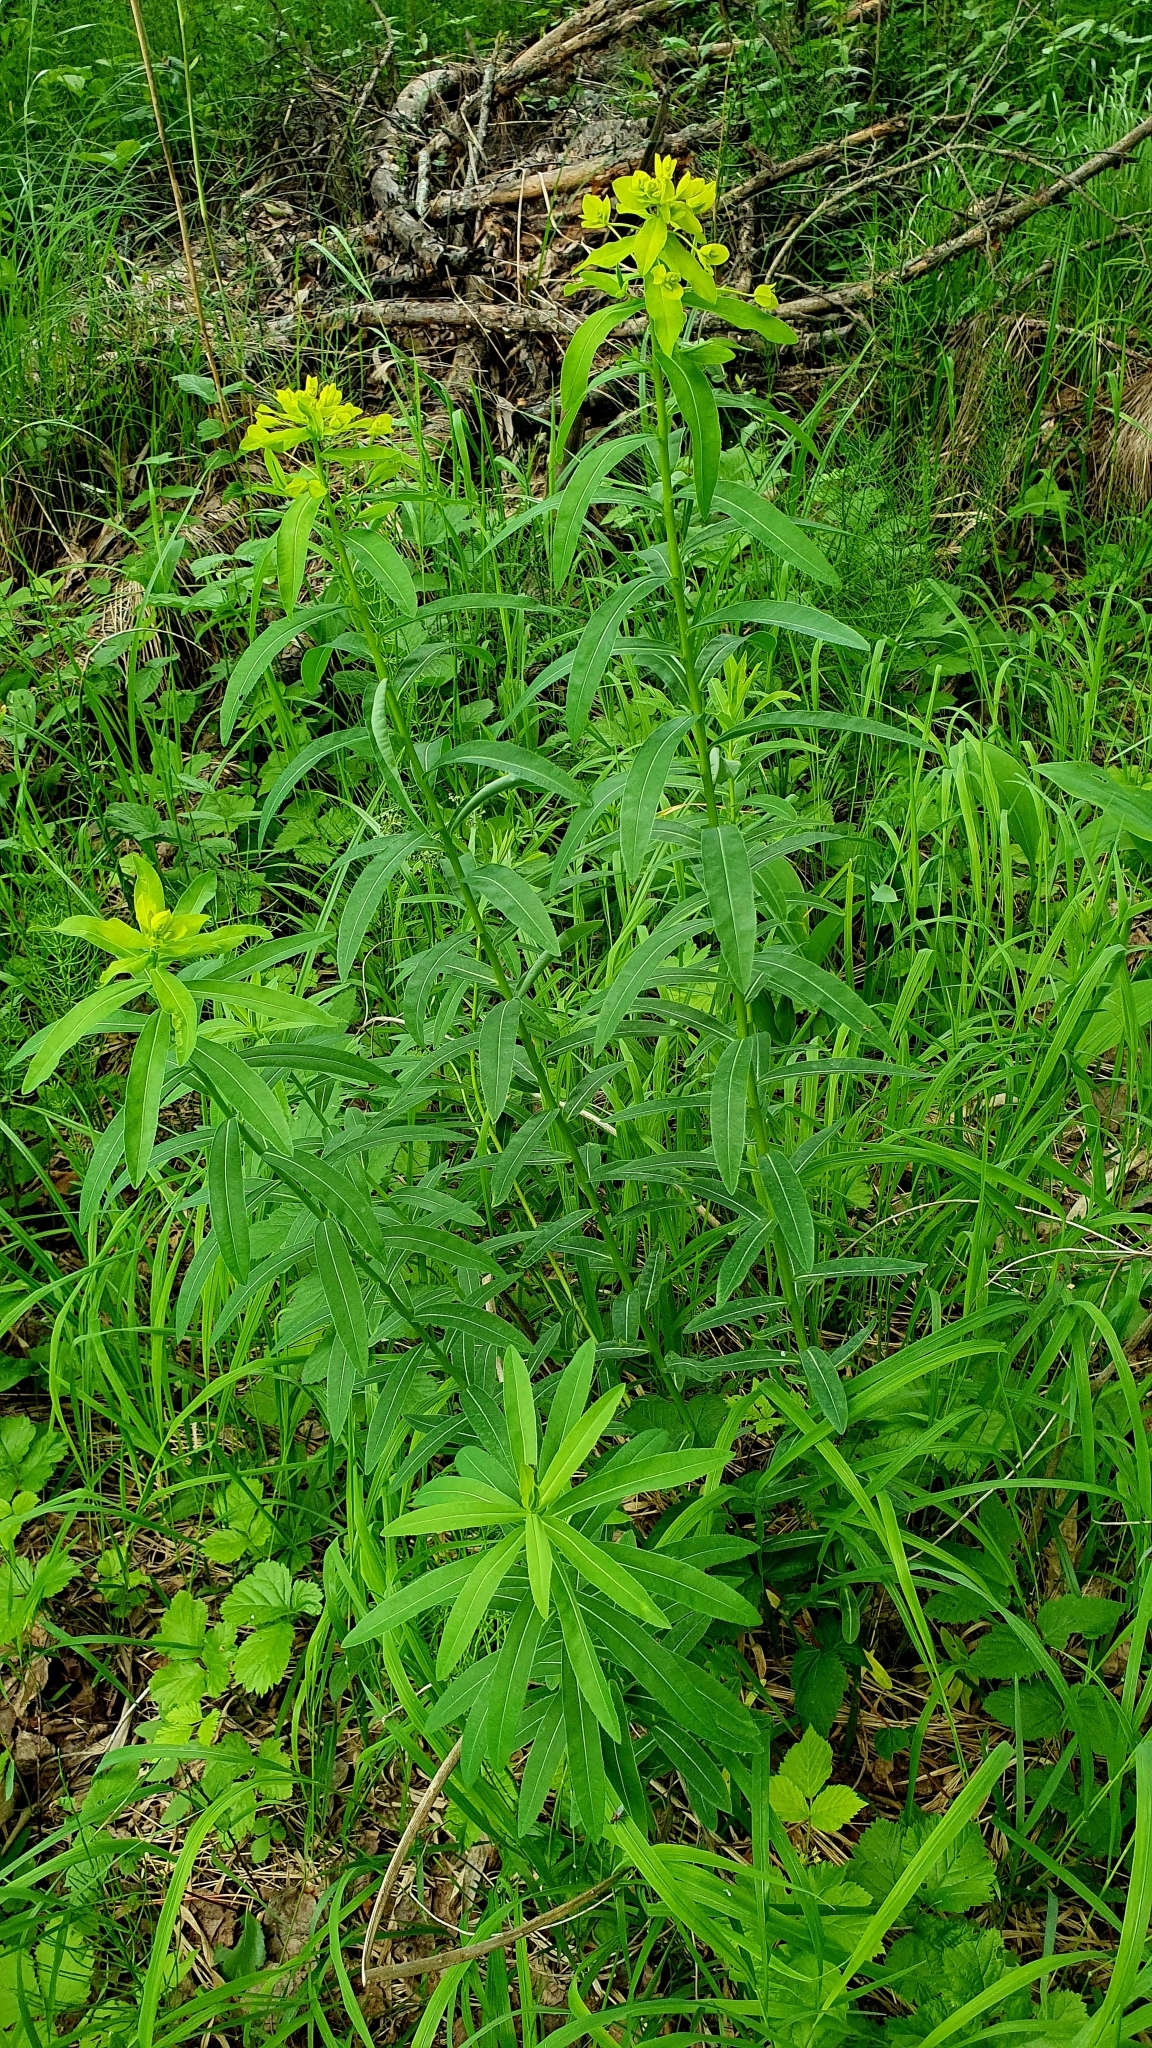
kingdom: Plantae
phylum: Tracheophyta
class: Magnoliopsida
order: Malpighiales
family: Euphorbiaceae
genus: Euphorbia
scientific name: Euphorbia semivillosa
